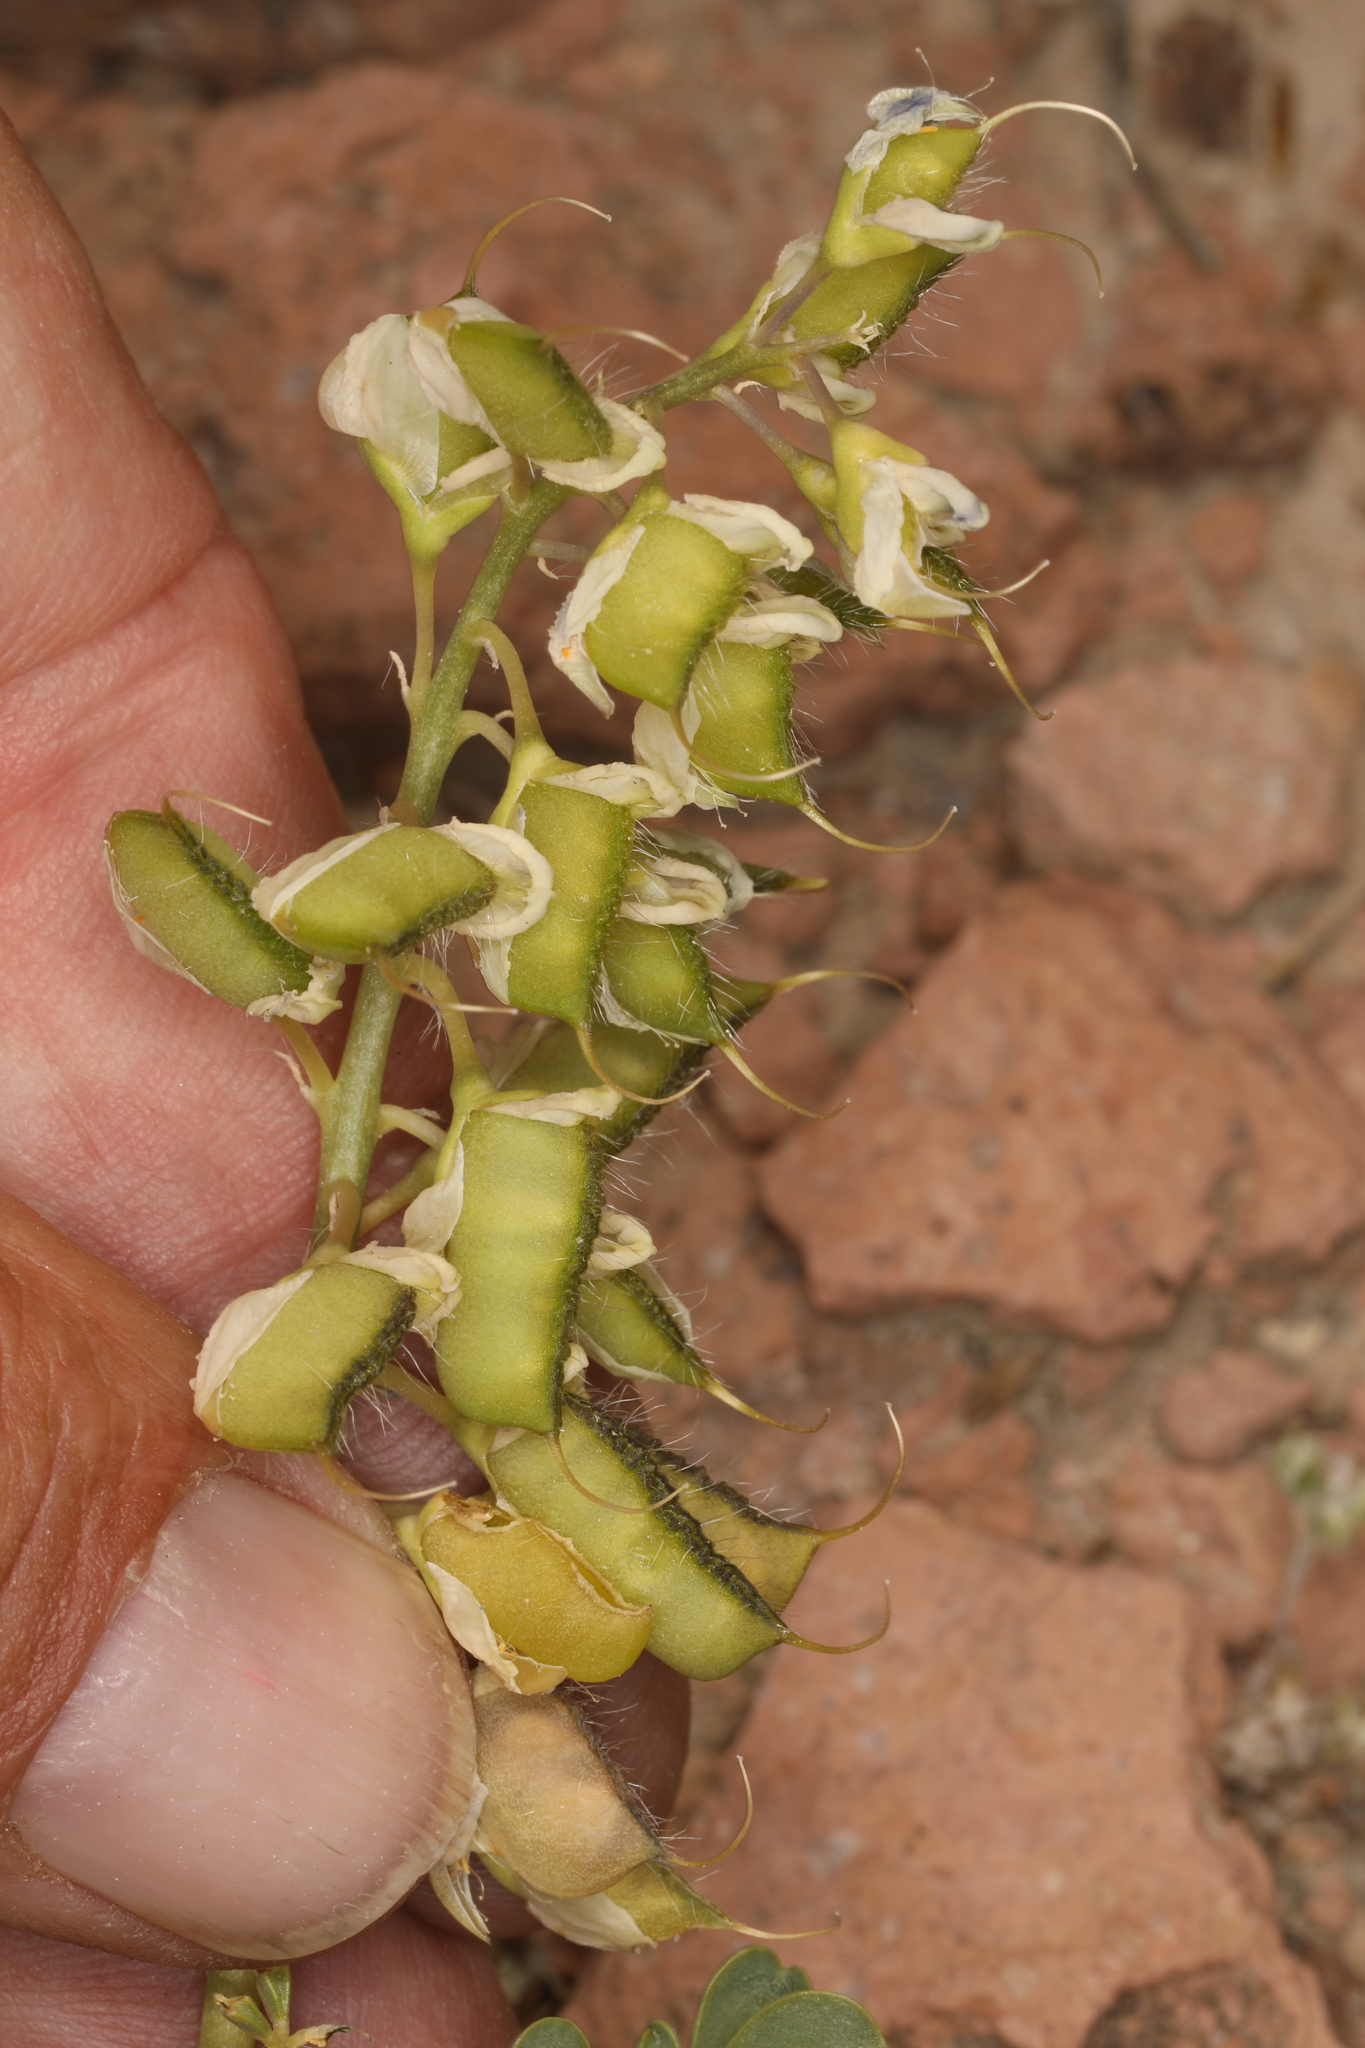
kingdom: Plantae
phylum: Tracheophyta
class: Magnoliopsida
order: Fabales
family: Fabaceae
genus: Lupinus
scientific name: Lupinus
